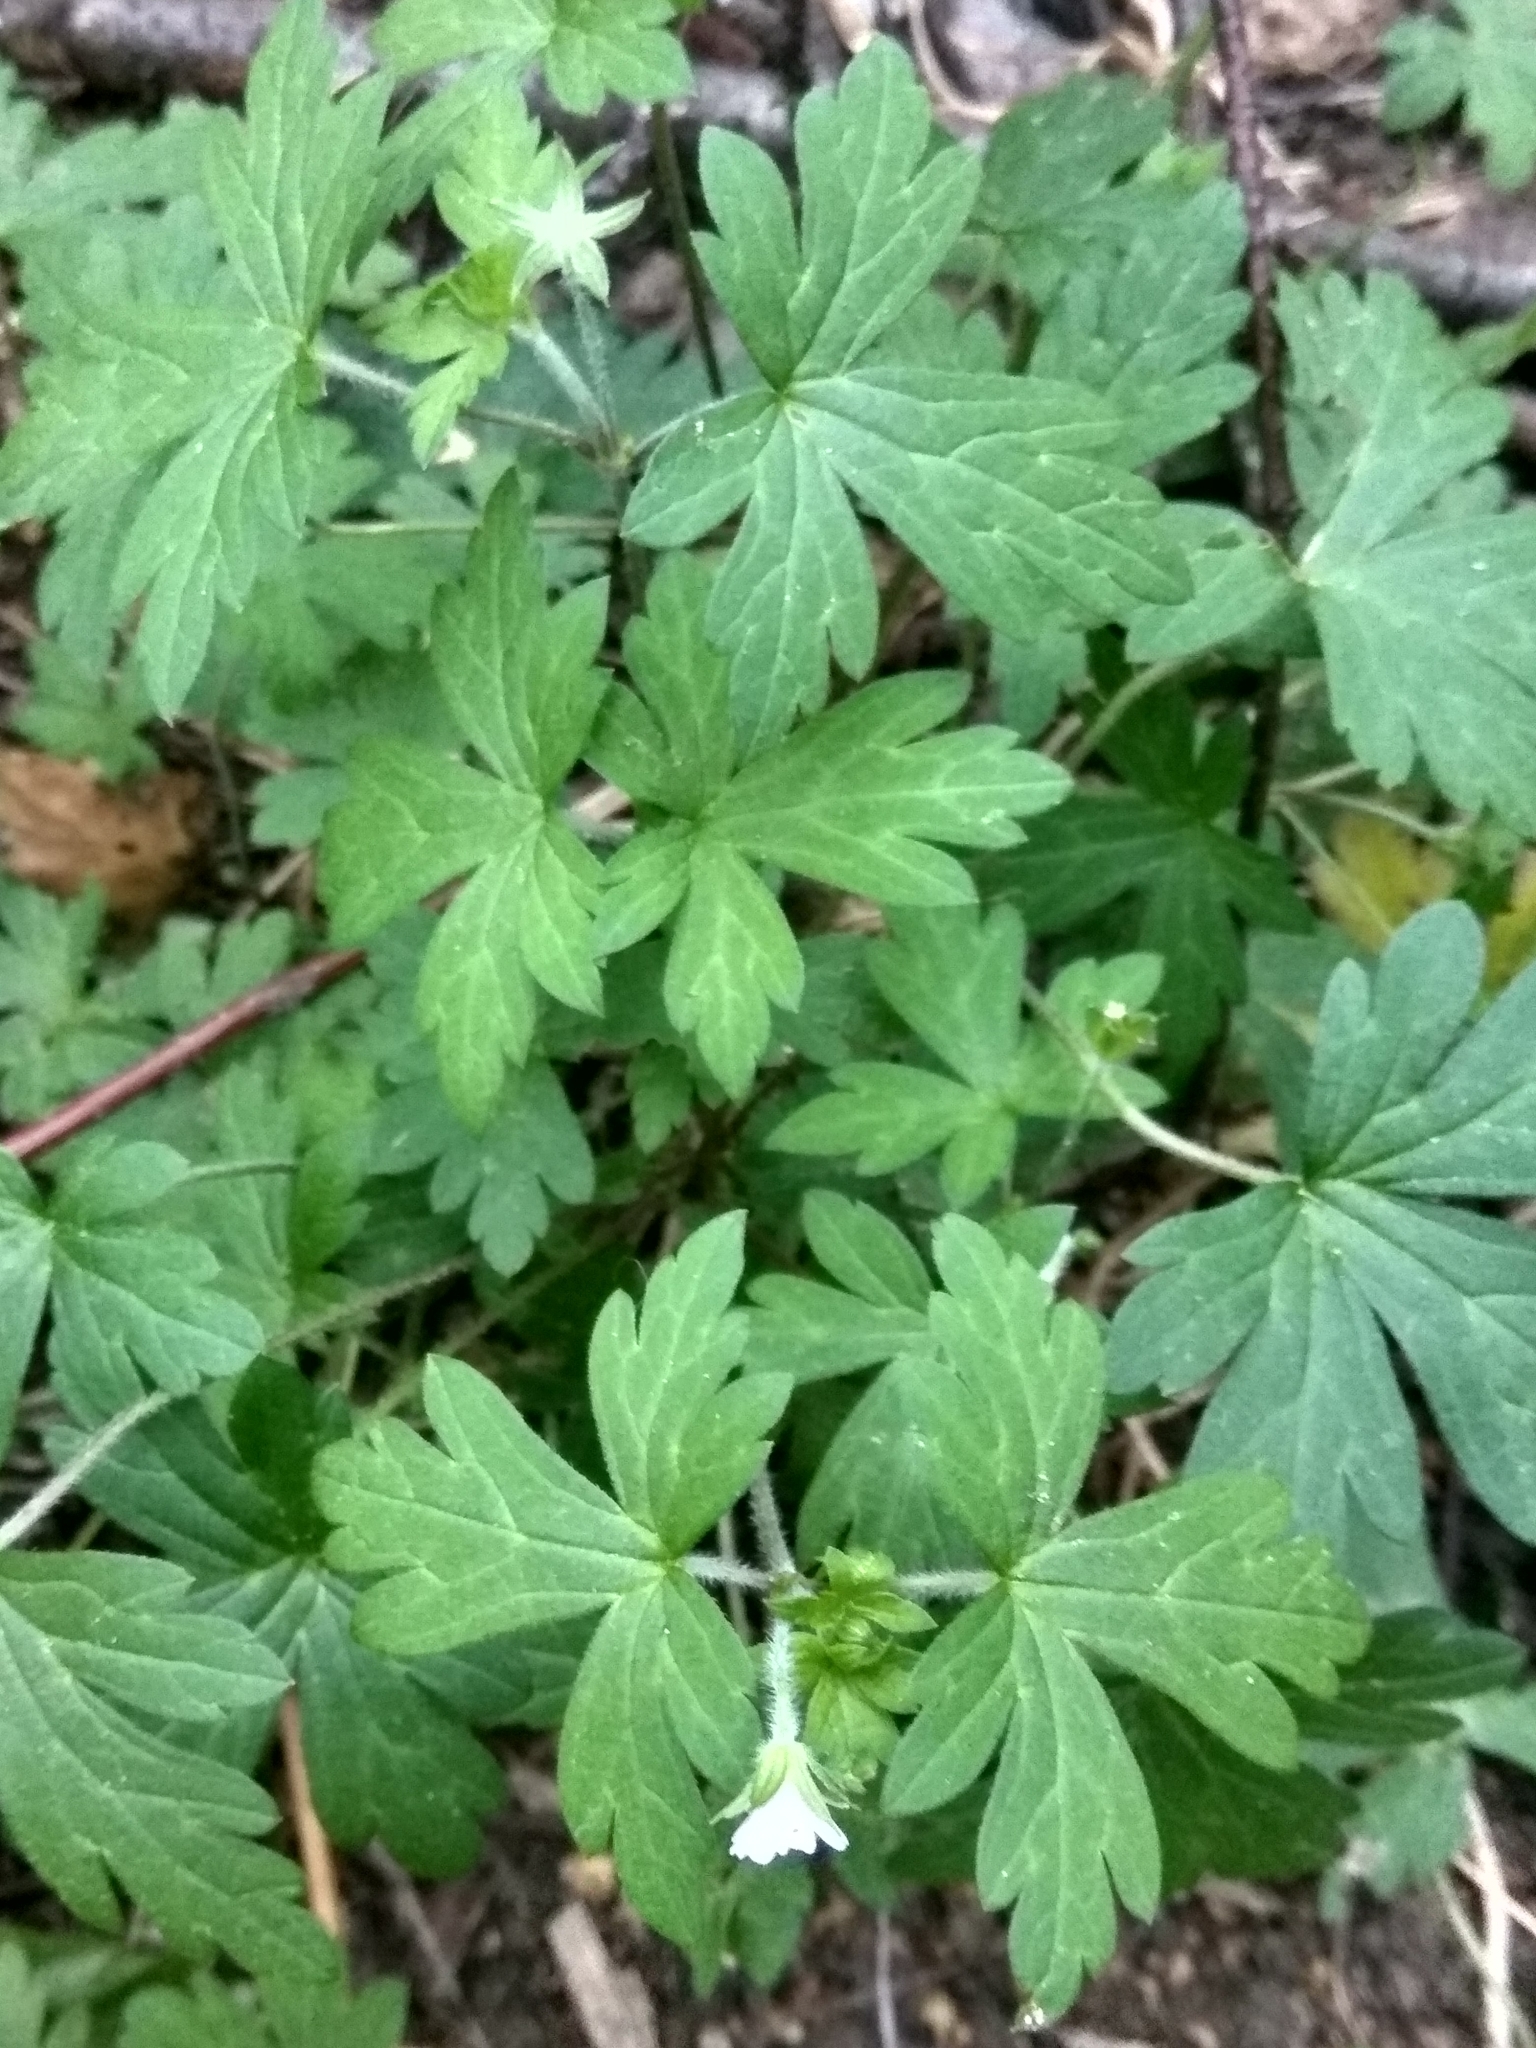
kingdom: Plantae
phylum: Tracheophyta
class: Magnoliopsida
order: Geraniales
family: Geraniaceae
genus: Geranium
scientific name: Geranium sibiricum
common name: Siberian crane's-bill
